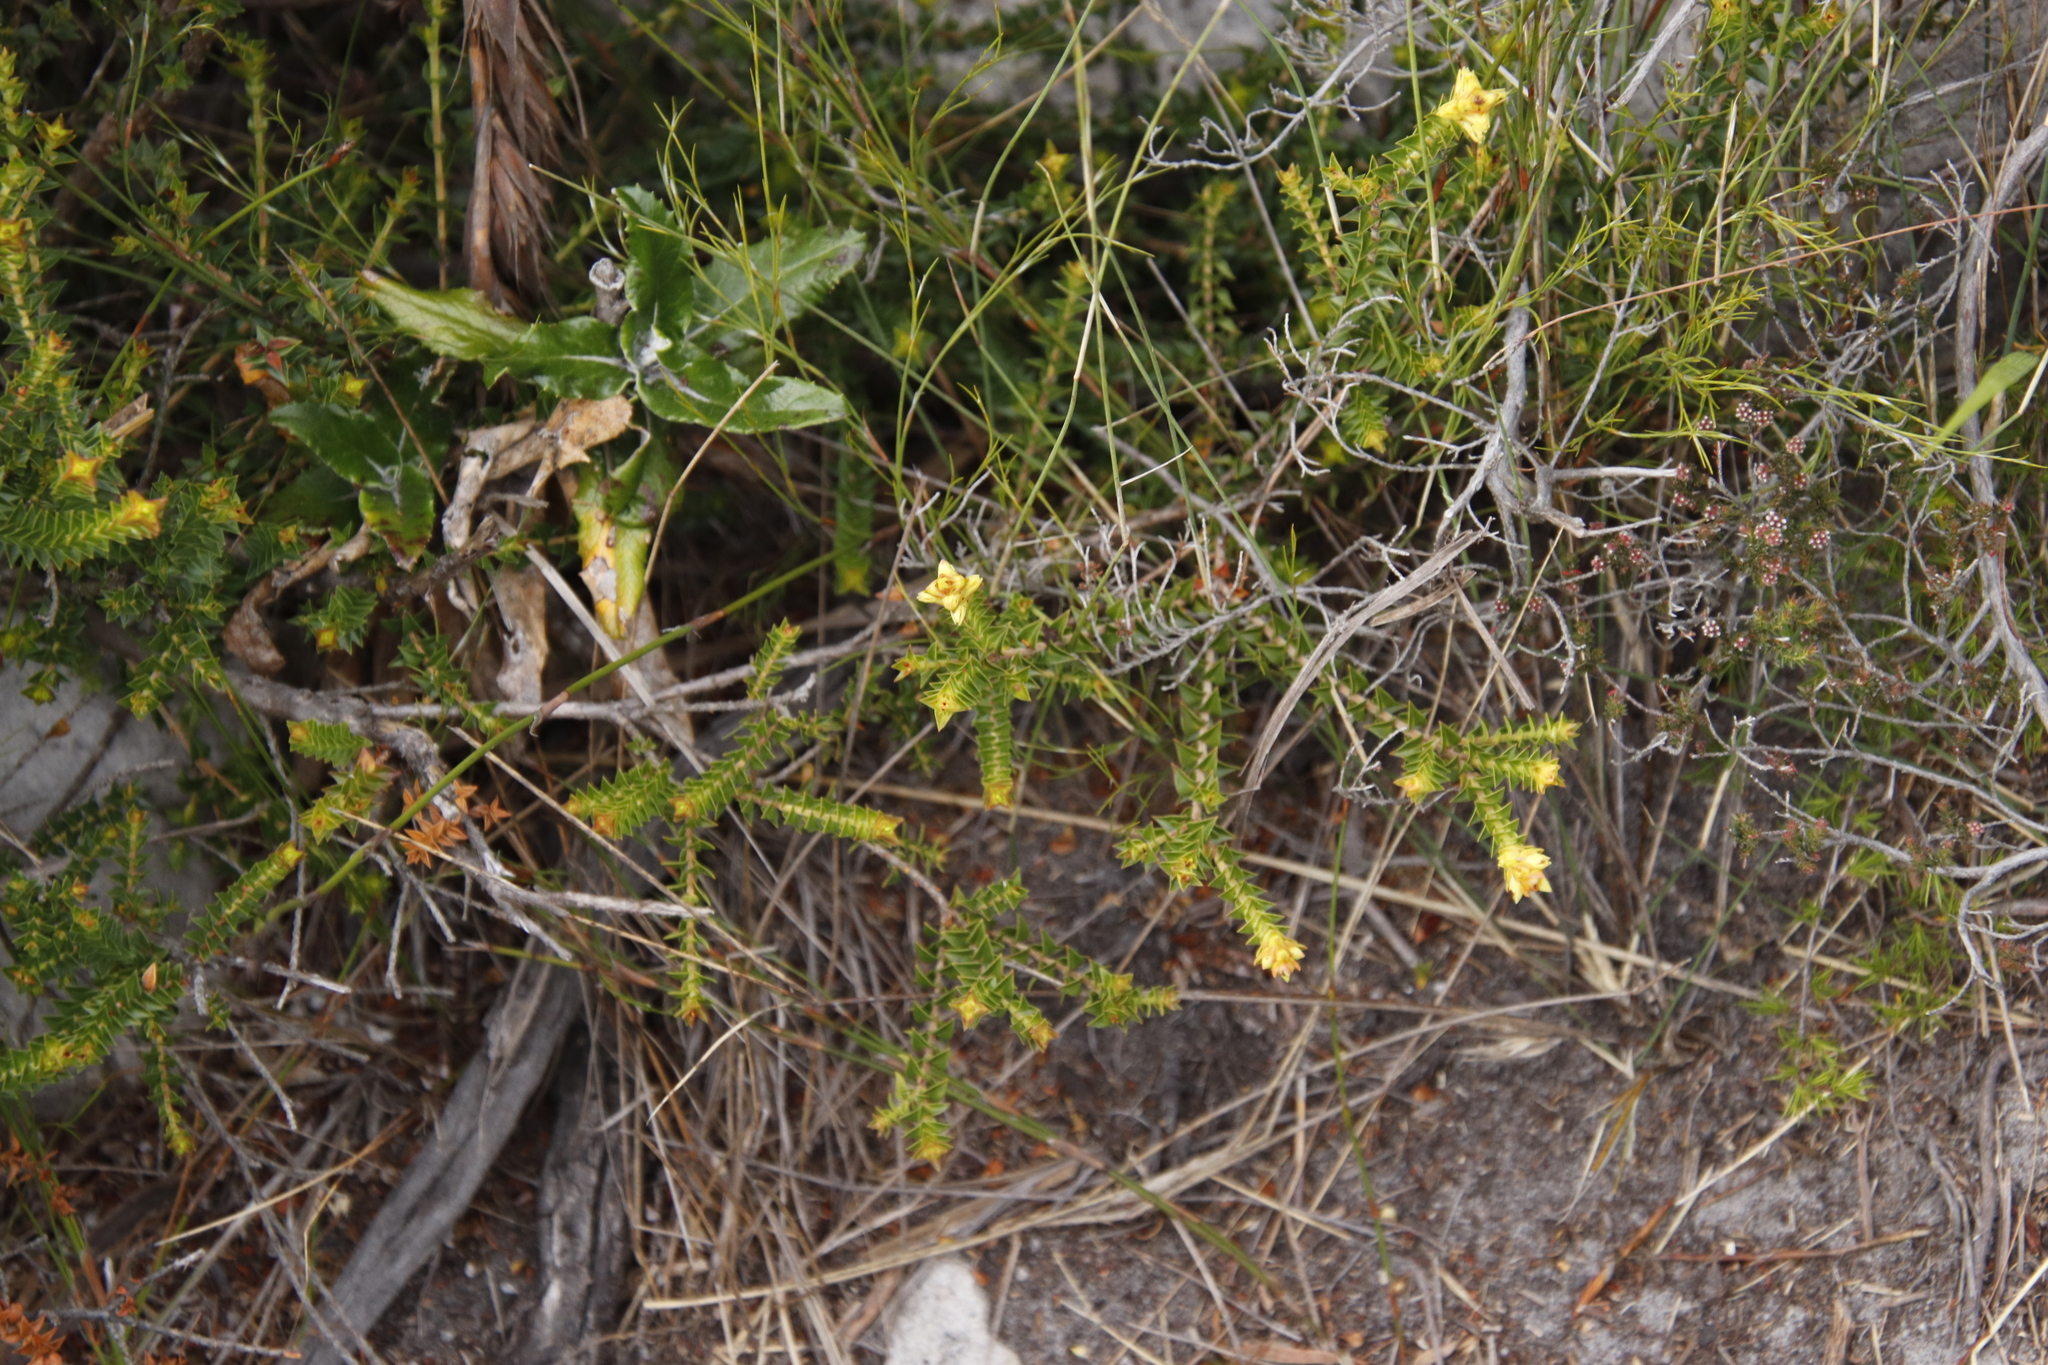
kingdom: Plantae
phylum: Tracheophyta
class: Magnoliopsida
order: Myrtales
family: Penaeaceae
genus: Penaea
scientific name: Penaea mucronata
